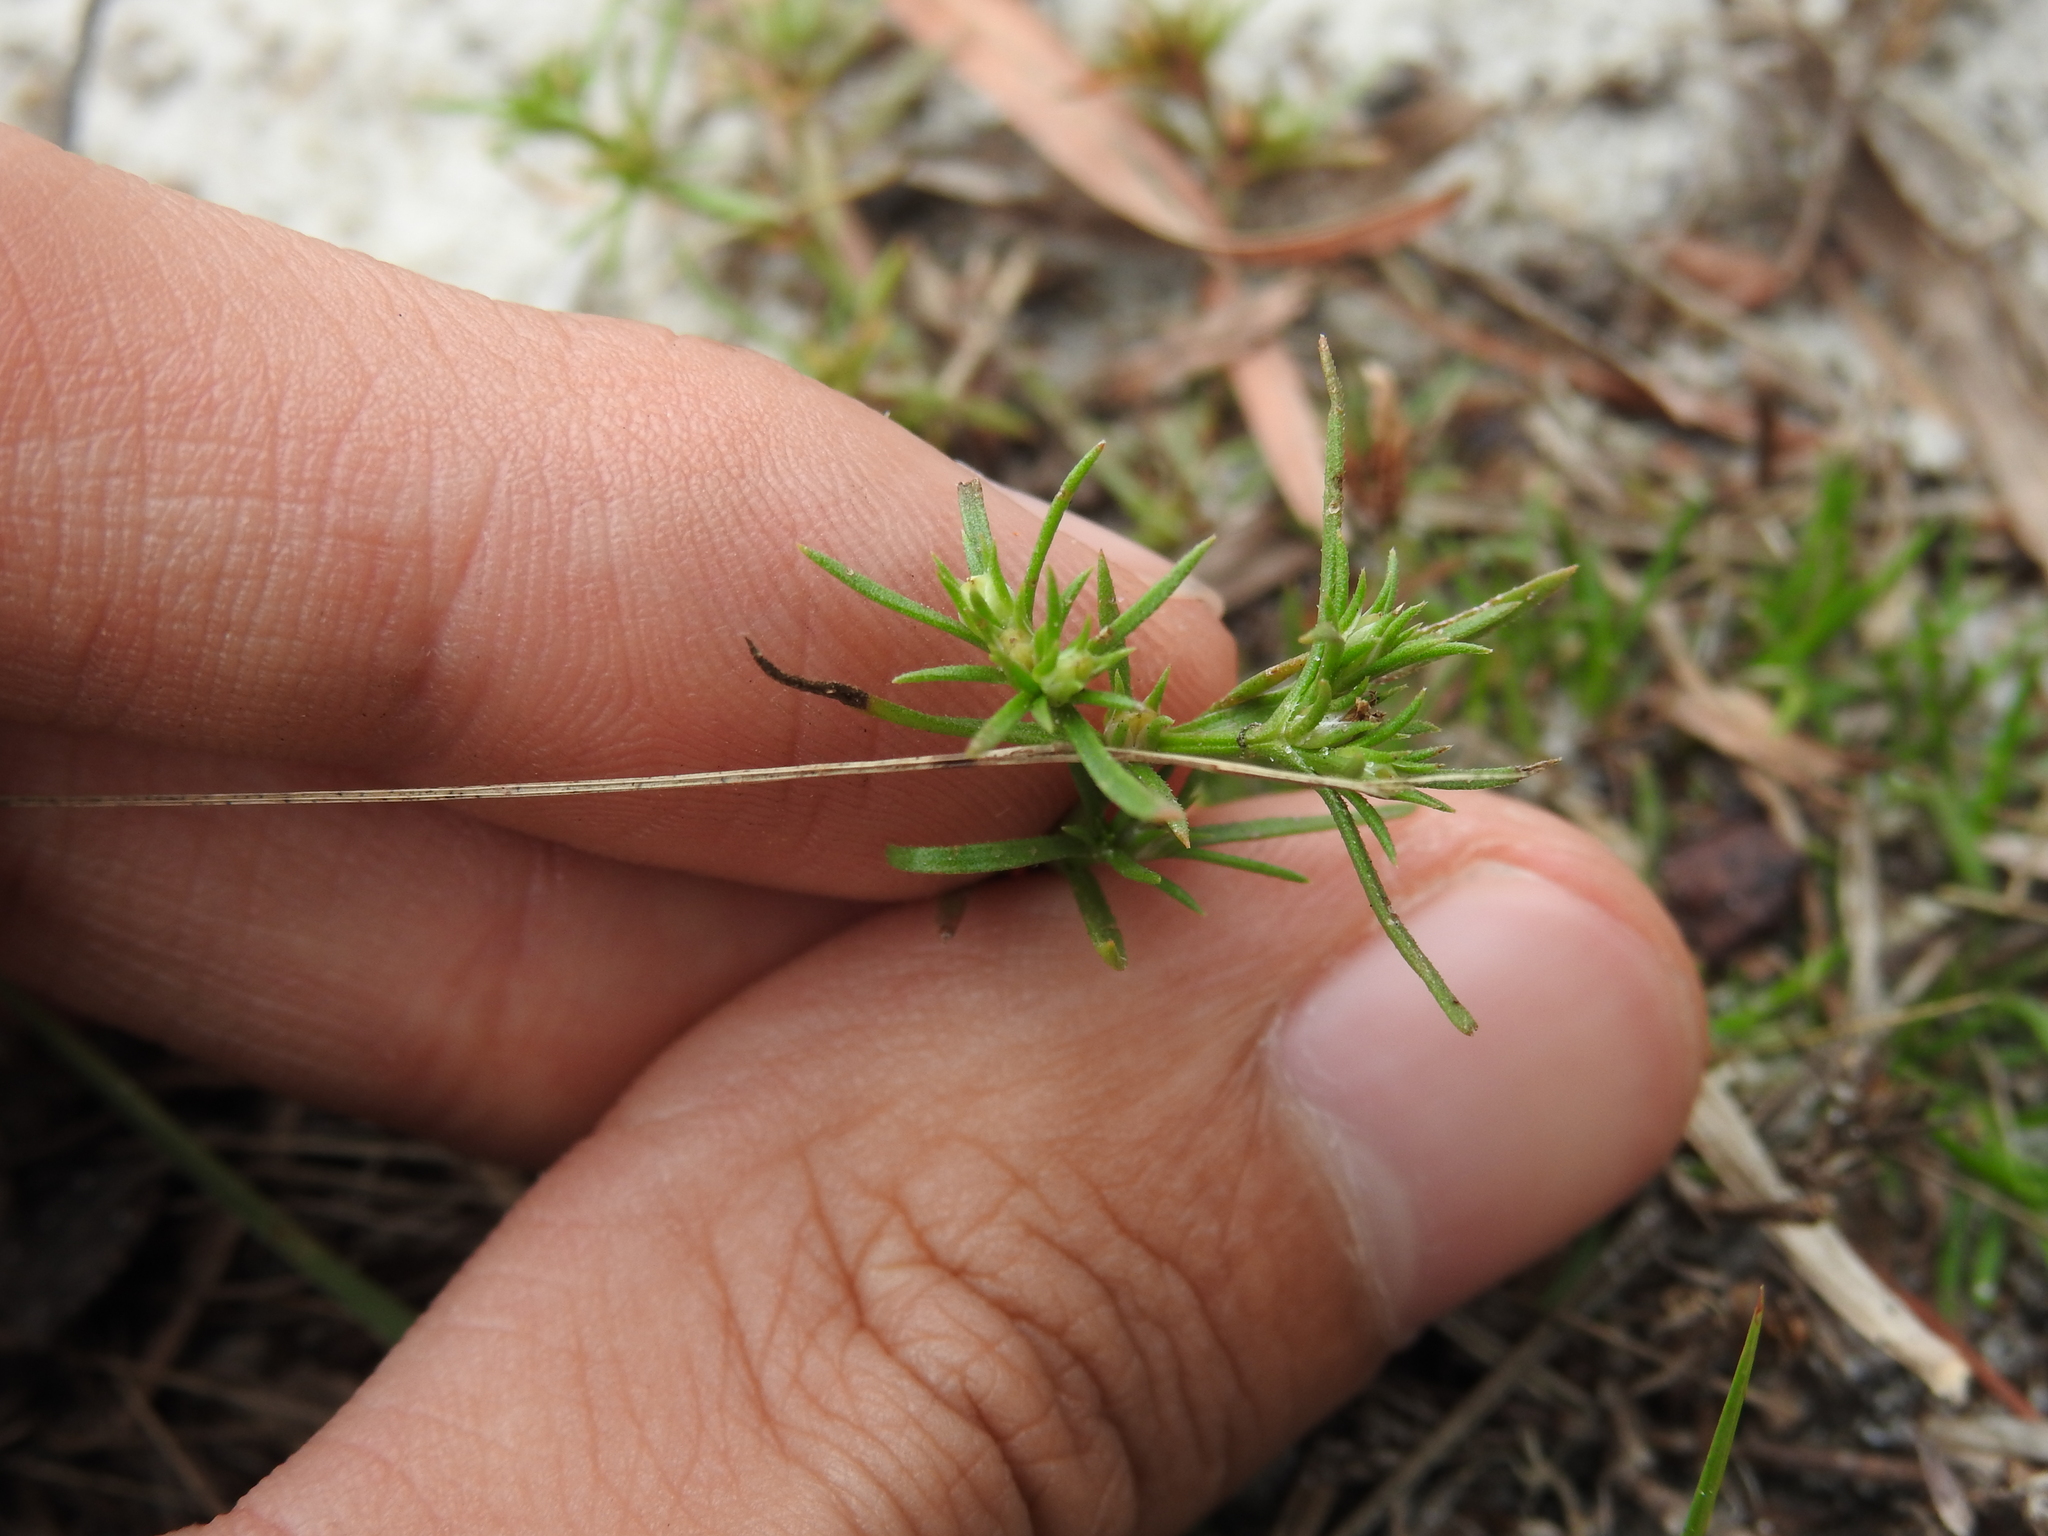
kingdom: Plantae
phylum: Tracheophyta
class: Magnoliopsida
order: Lamiales
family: Tetrachondraceae
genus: Polypremum
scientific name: Polypremum procumbens
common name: Juniper-leaf
